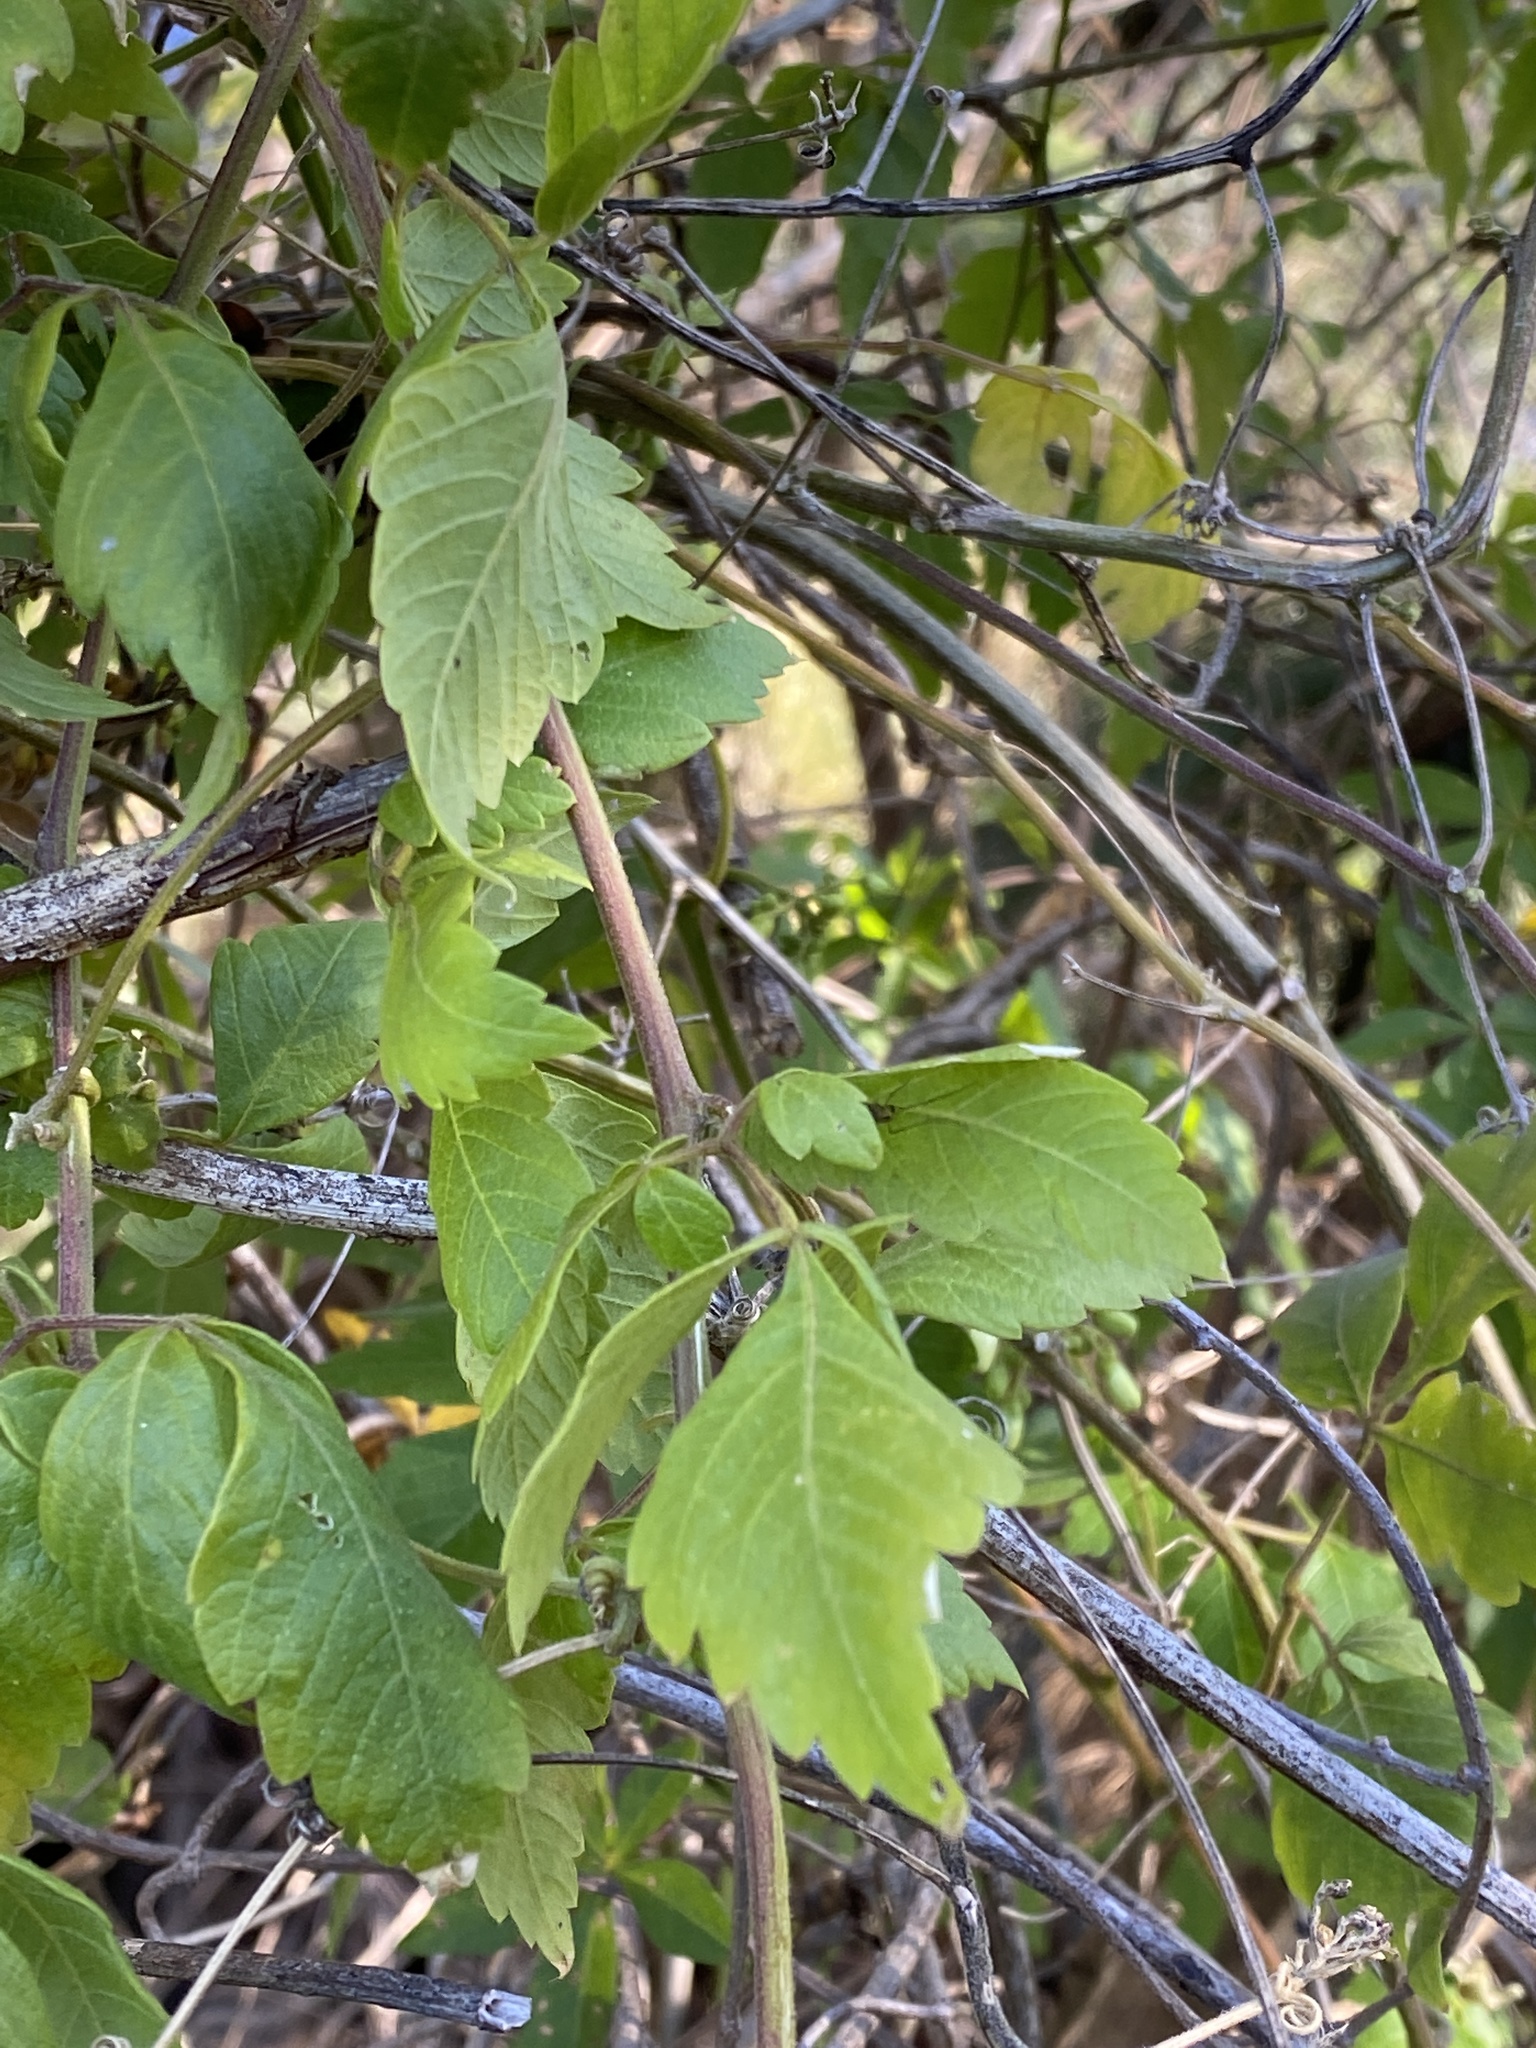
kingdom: Plantae
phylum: Tracheophyta
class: Magnoliopsida
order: Sapindales
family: Sapindaceae
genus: Cardiospermum
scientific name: Cardiospermum grandiflorum
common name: Balloon vine
